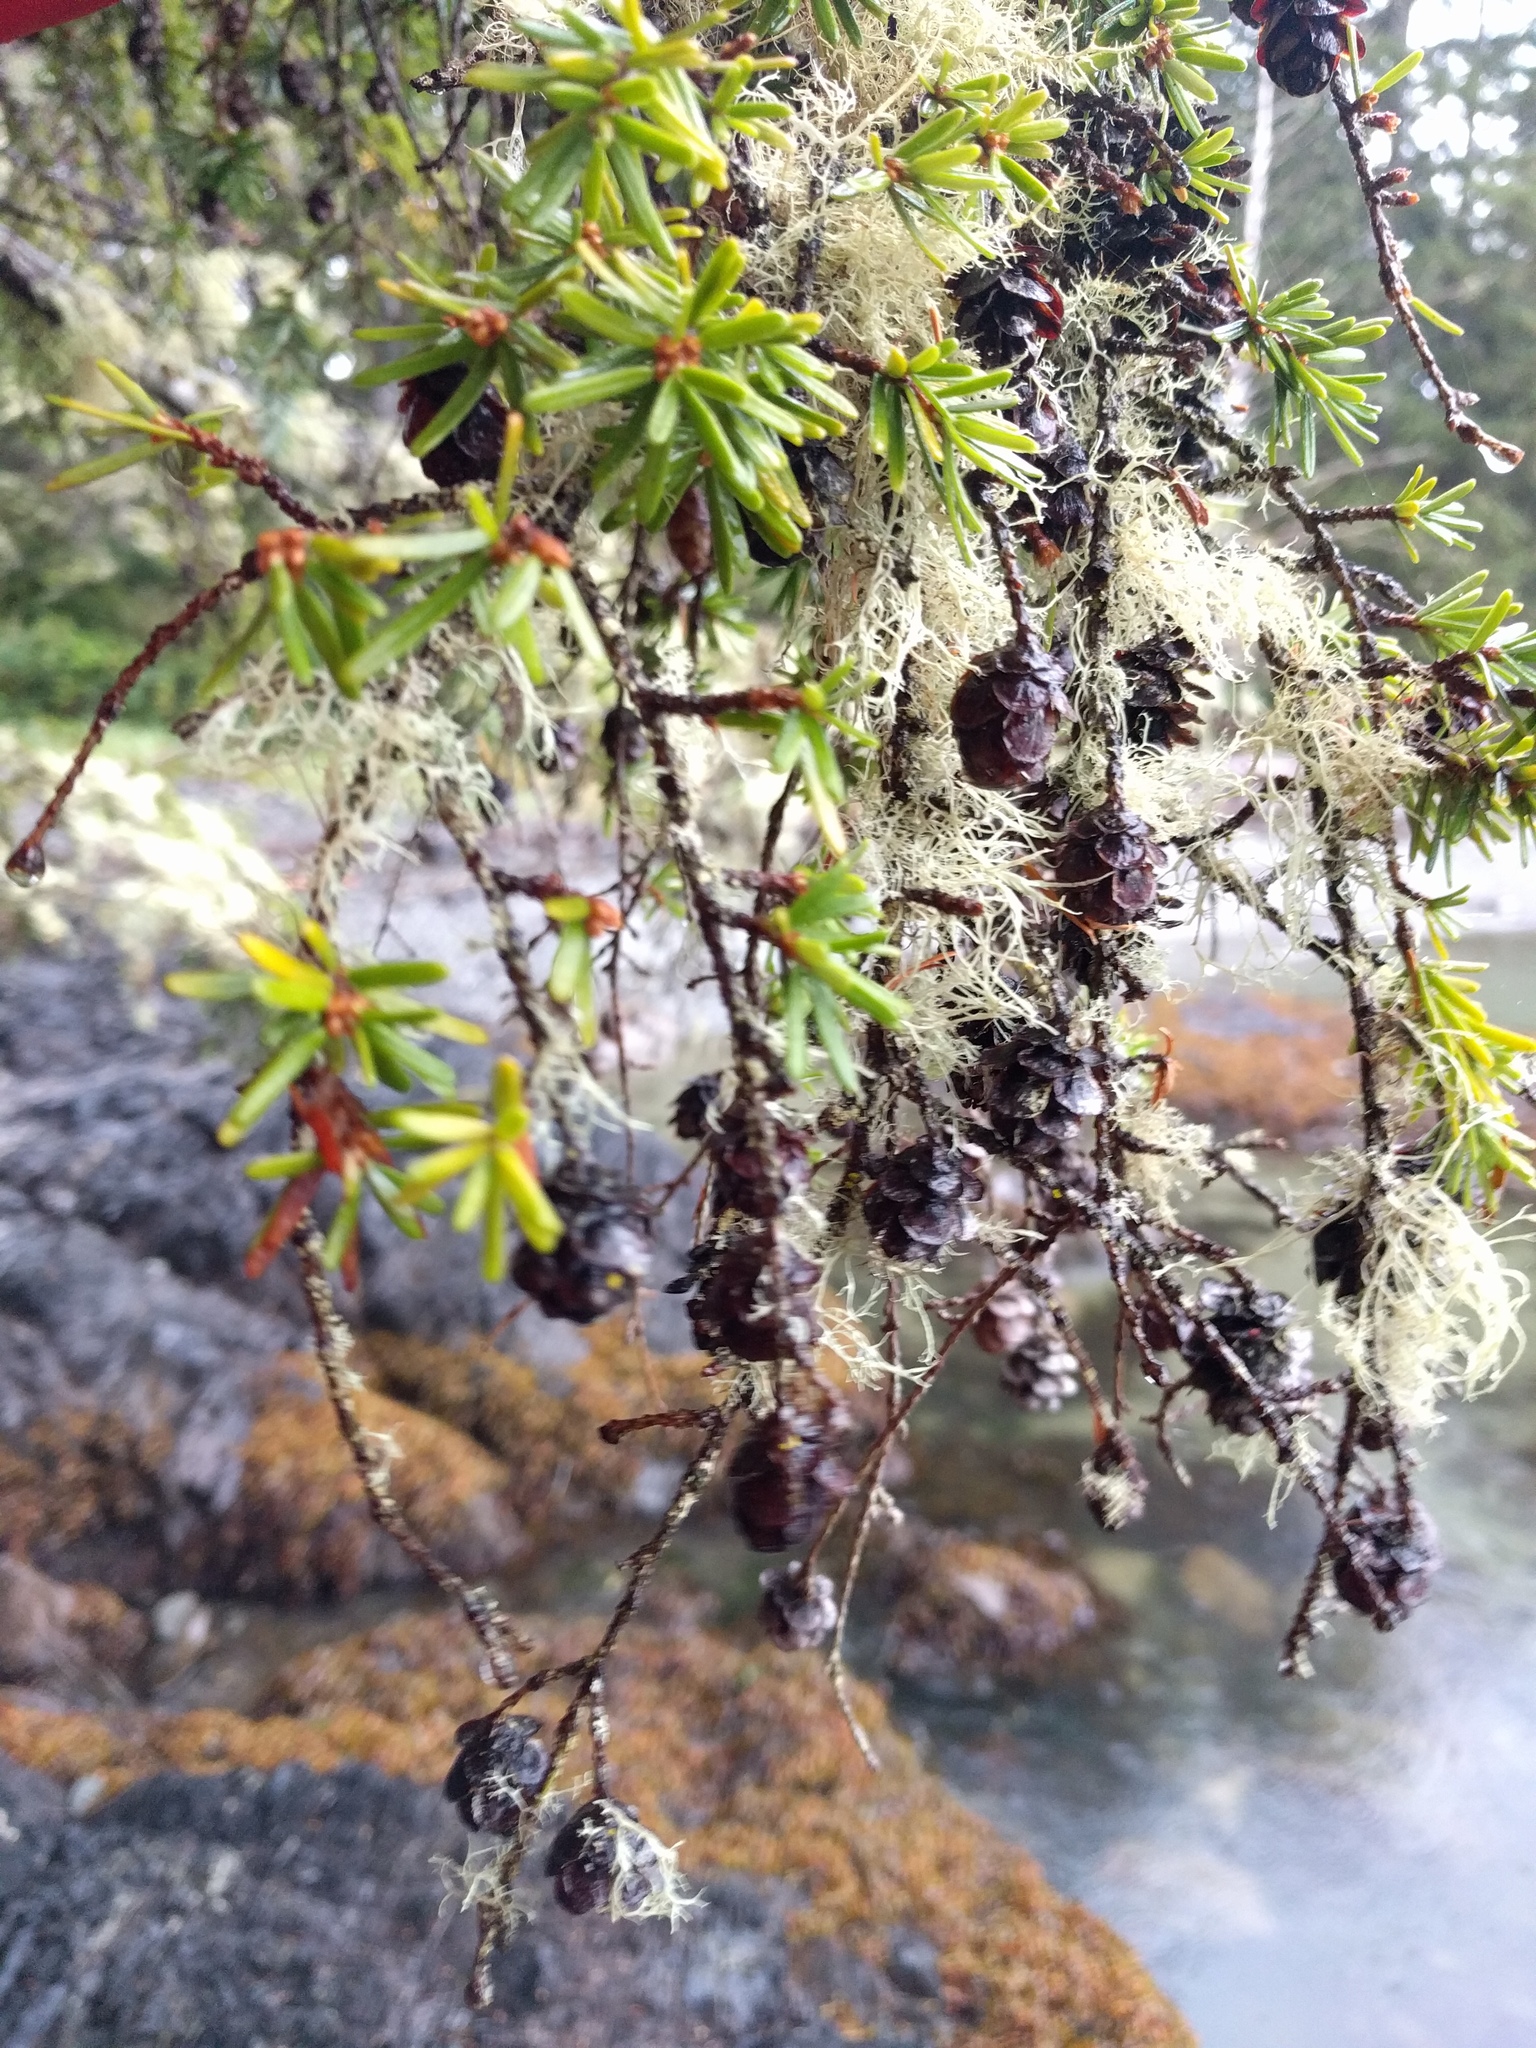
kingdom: Plantae
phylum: Tracheophyta
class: Pinopsida
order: Pinales
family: Pinaceae
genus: Tsuga
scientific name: Tsuga heterophylla
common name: Western hemlock
